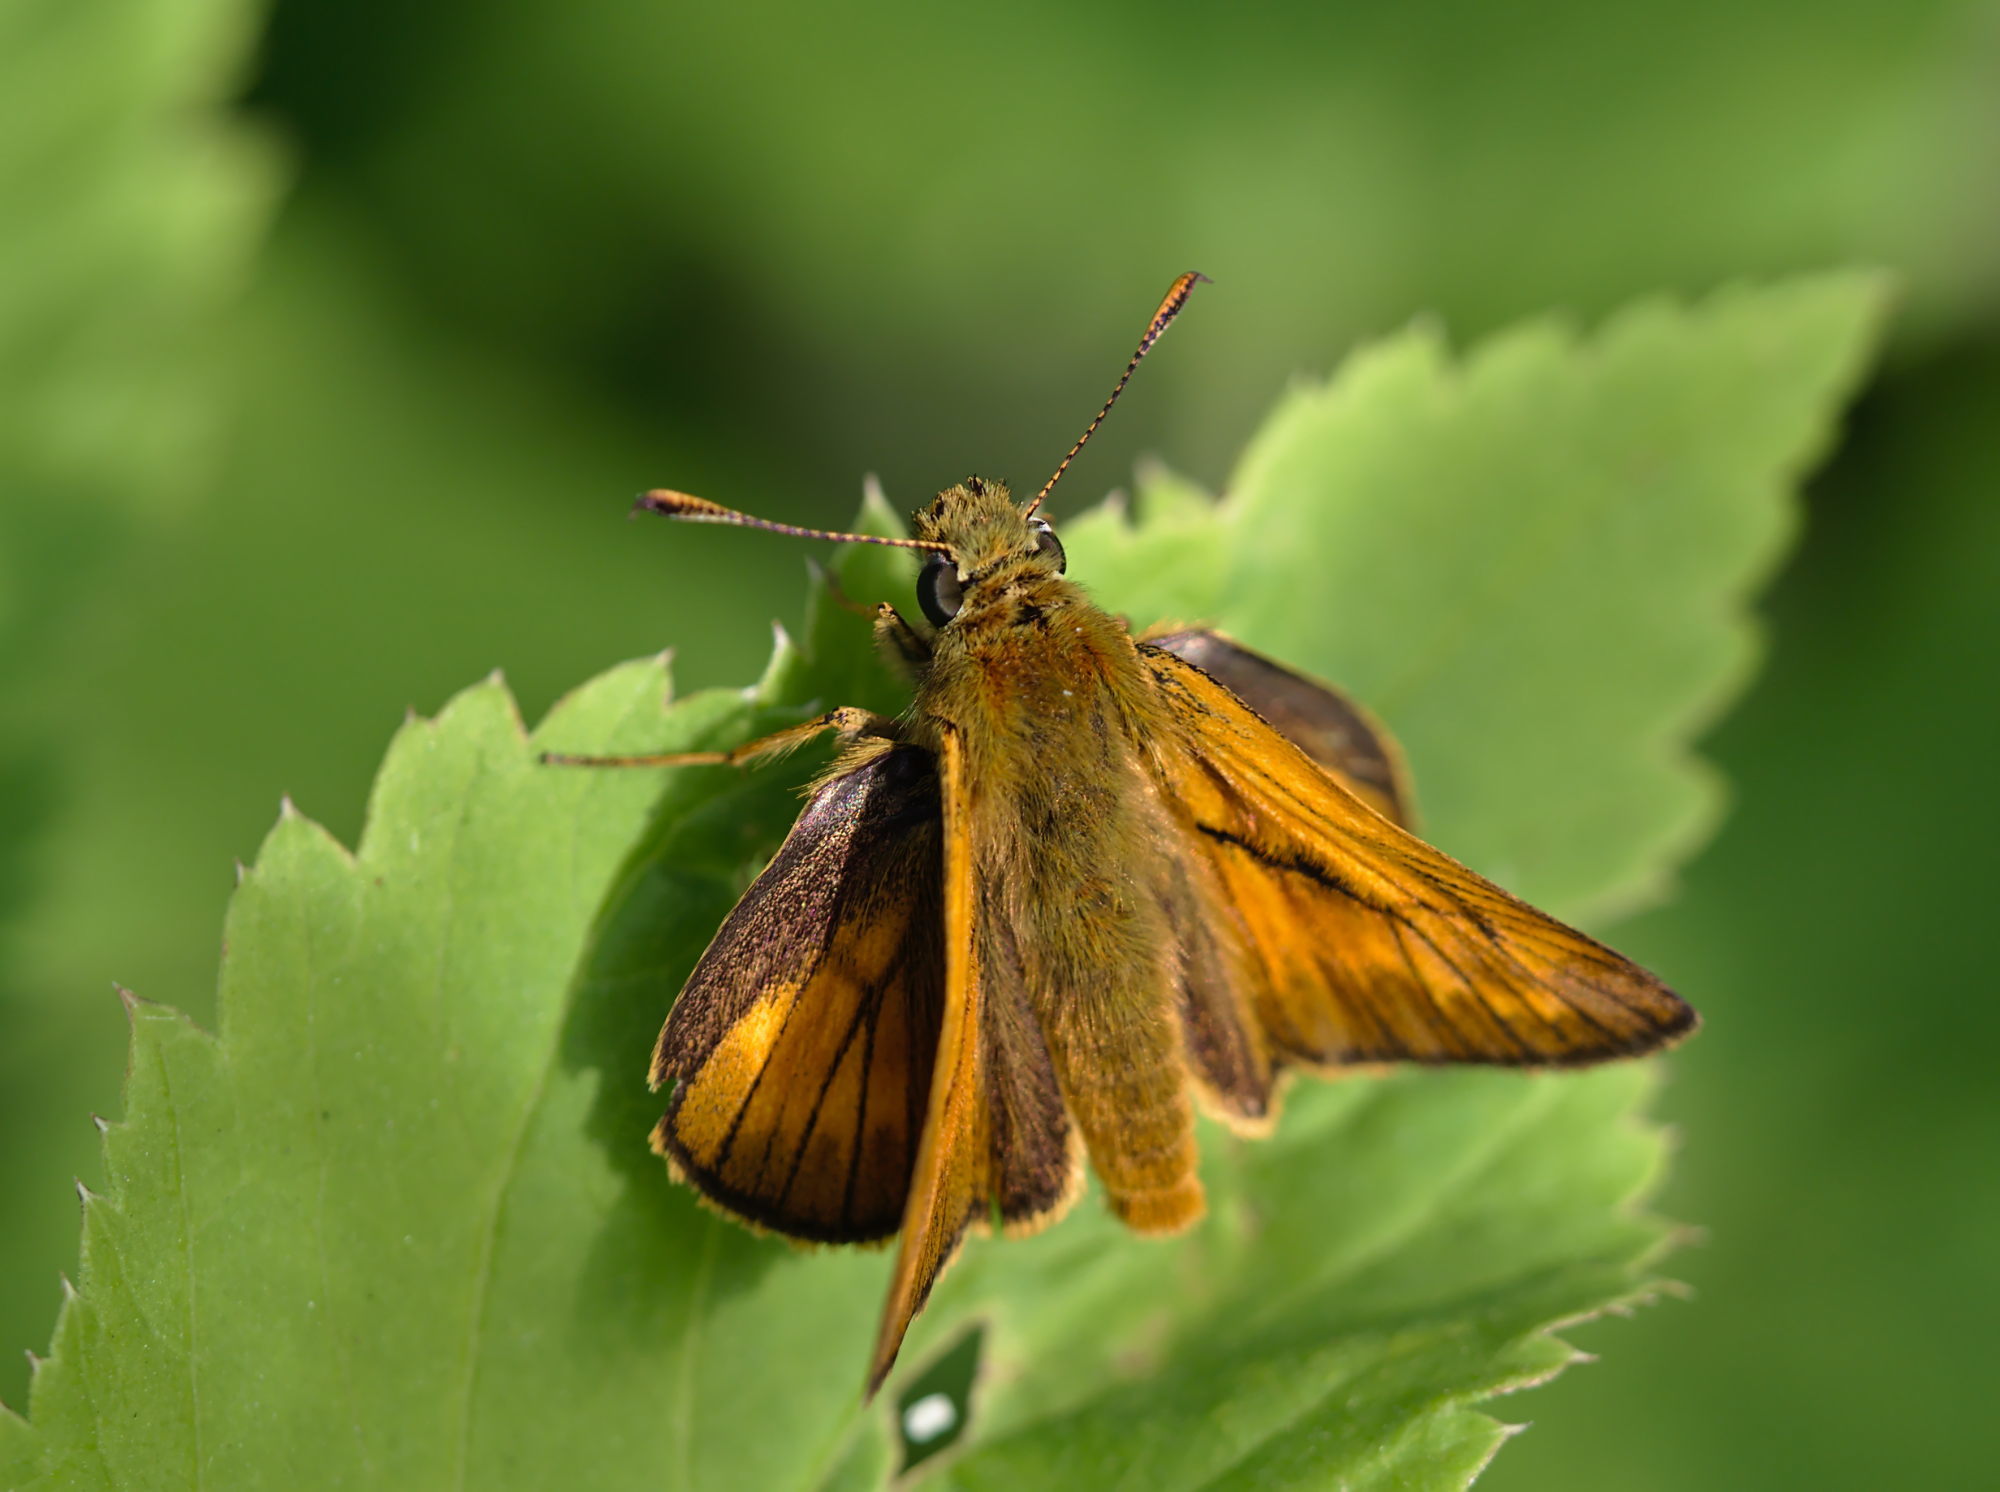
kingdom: Animalia
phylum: Arthropoda
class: Insecta
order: Lepidoptera
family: Hesperiidae
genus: Ochlodes
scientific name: Ochlodes venata
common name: Large skipper
